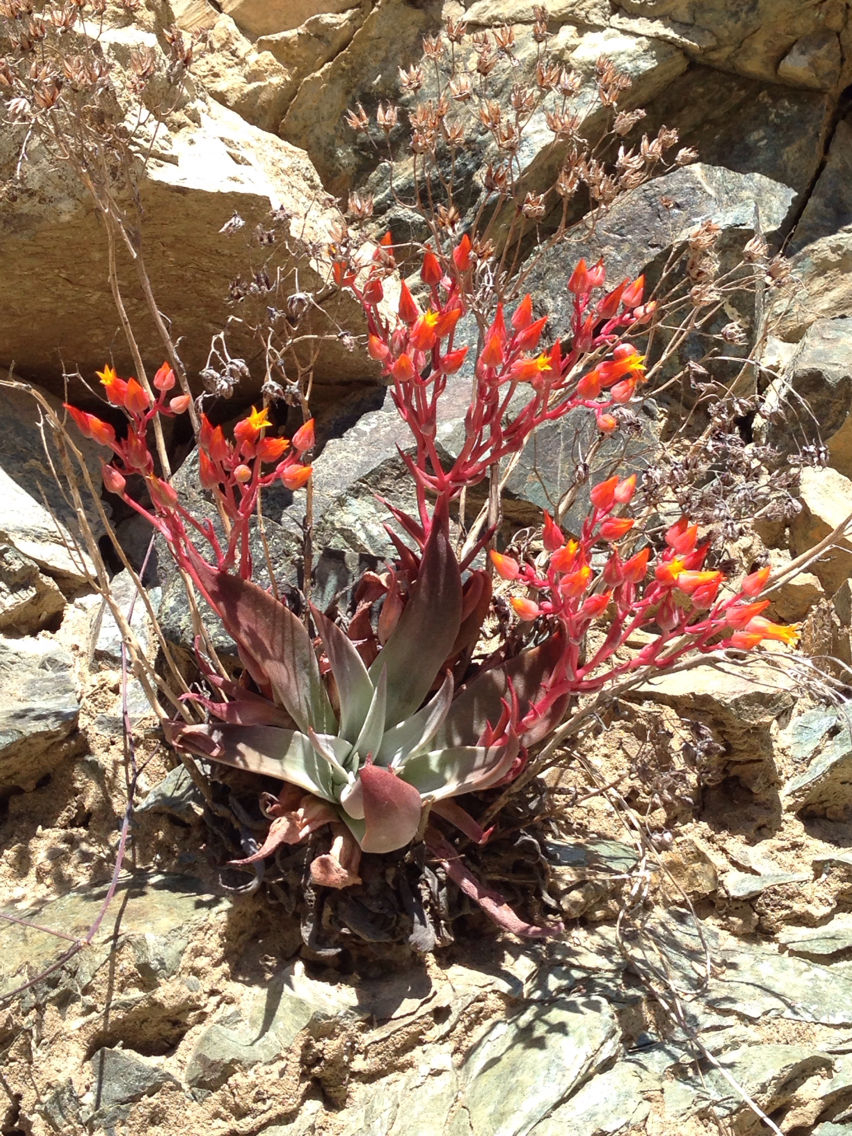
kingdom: Plantae
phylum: Tracheophyta
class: Magnoliopsida
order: Saxifragales
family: Crassulaceae
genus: Dudleya
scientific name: Dudleya cymosa
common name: Canyon dudleya
